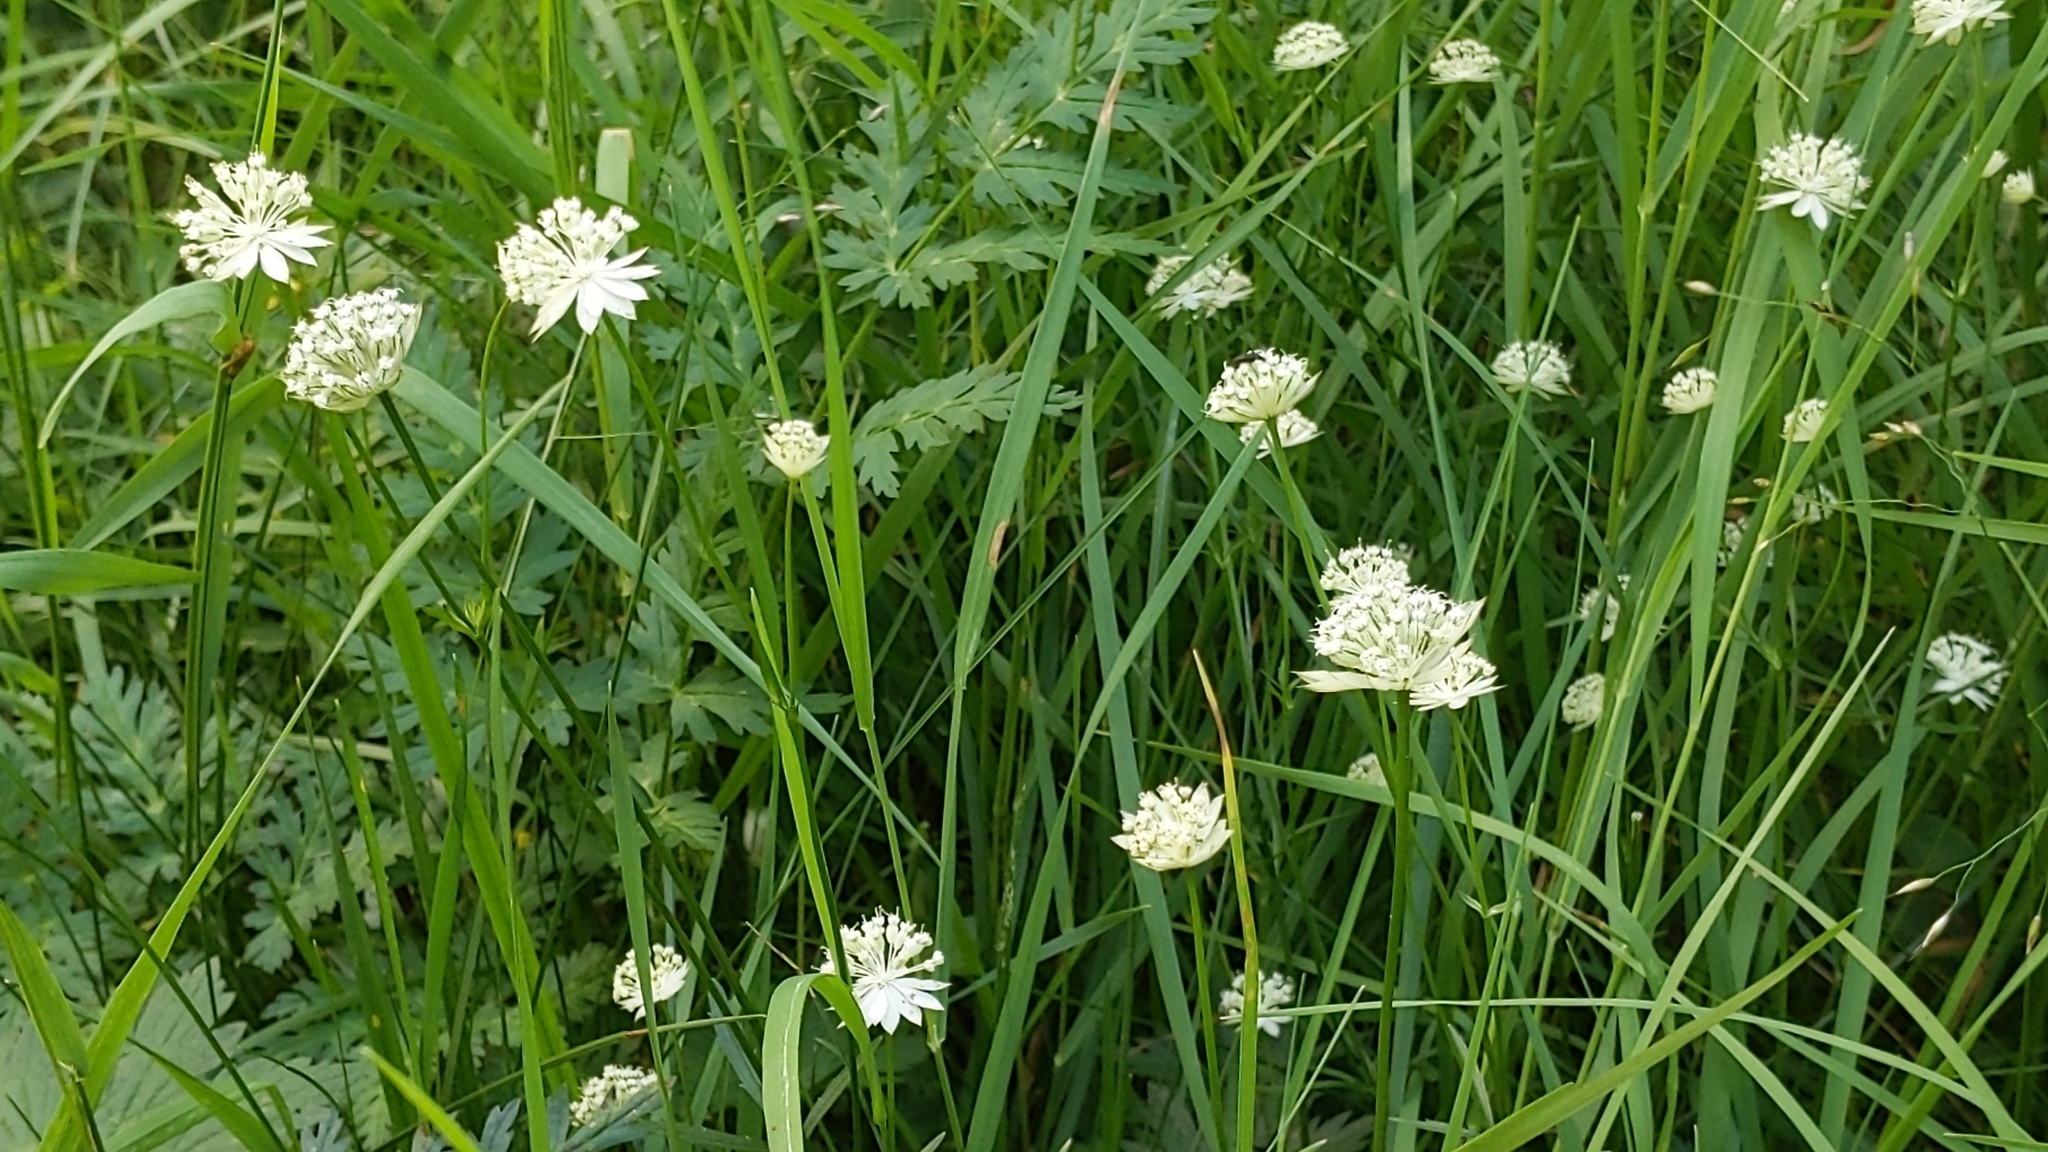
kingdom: Plantae
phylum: Tracheophyta
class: Magnoliopsida
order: Apiales
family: Apiaceae
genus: Astrantia
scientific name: Astrantia minor
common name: Lesser masterwort
